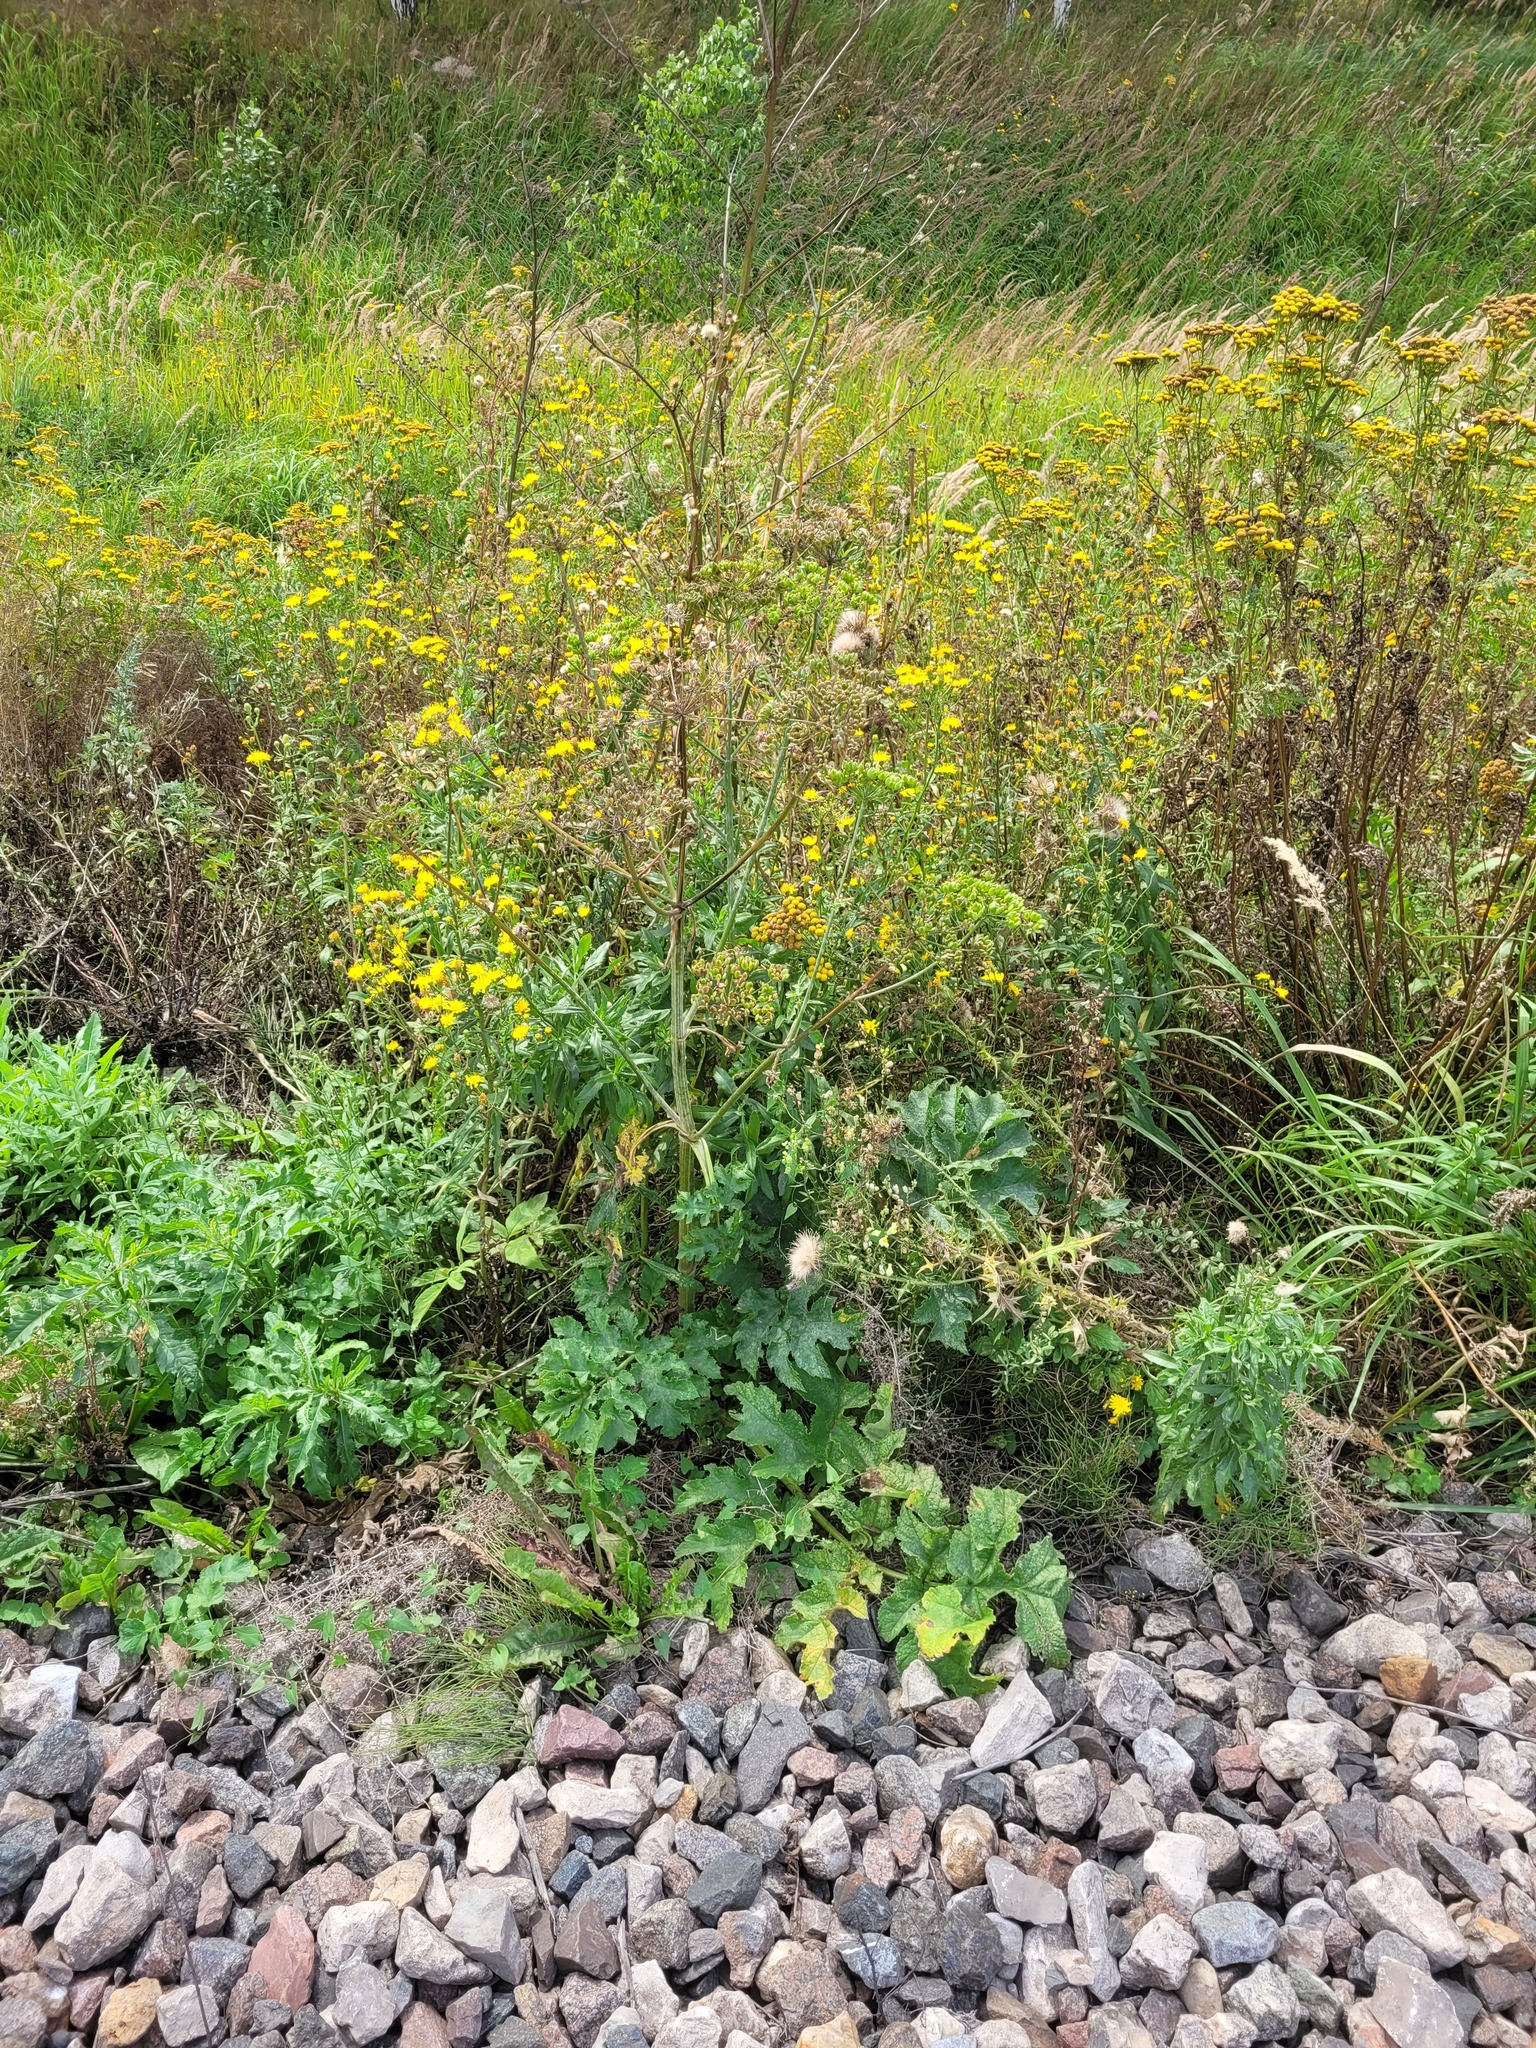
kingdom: Plantae
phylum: Tracheophyta
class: Magnoliopsida
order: Apiales
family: Apiaceae
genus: Heracleum
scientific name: Heracleum sphondylium
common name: Hogweed
